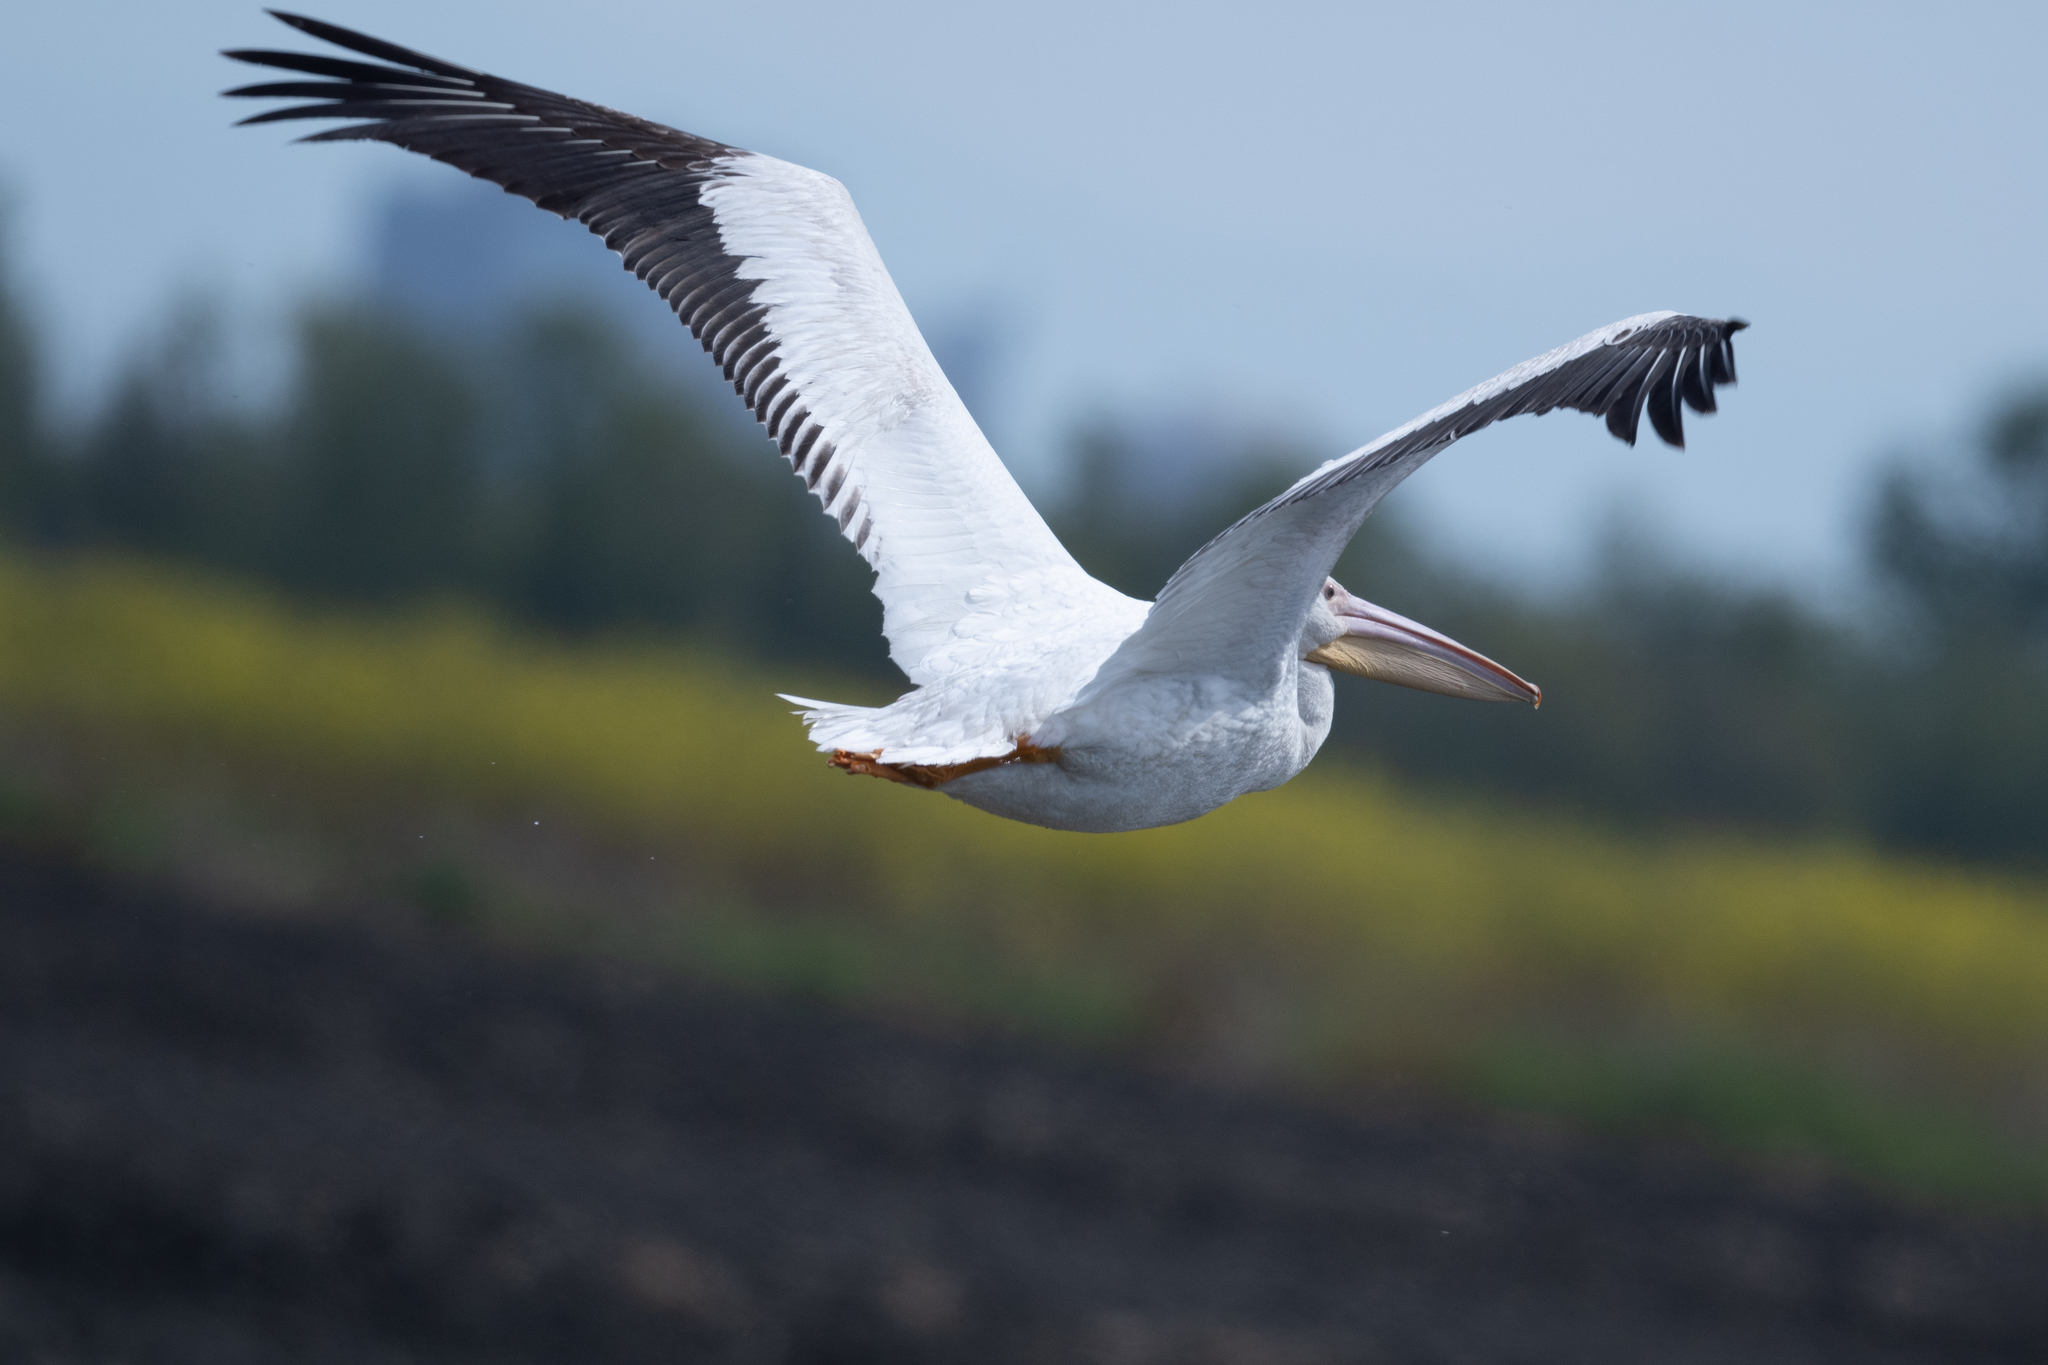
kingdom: Animalia
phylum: Chordata
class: Aves
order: Pelecaniformes
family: Pelecanidae
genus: Pelecanus
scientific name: Pelecanus erythrorhynchos
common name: American white pelican
